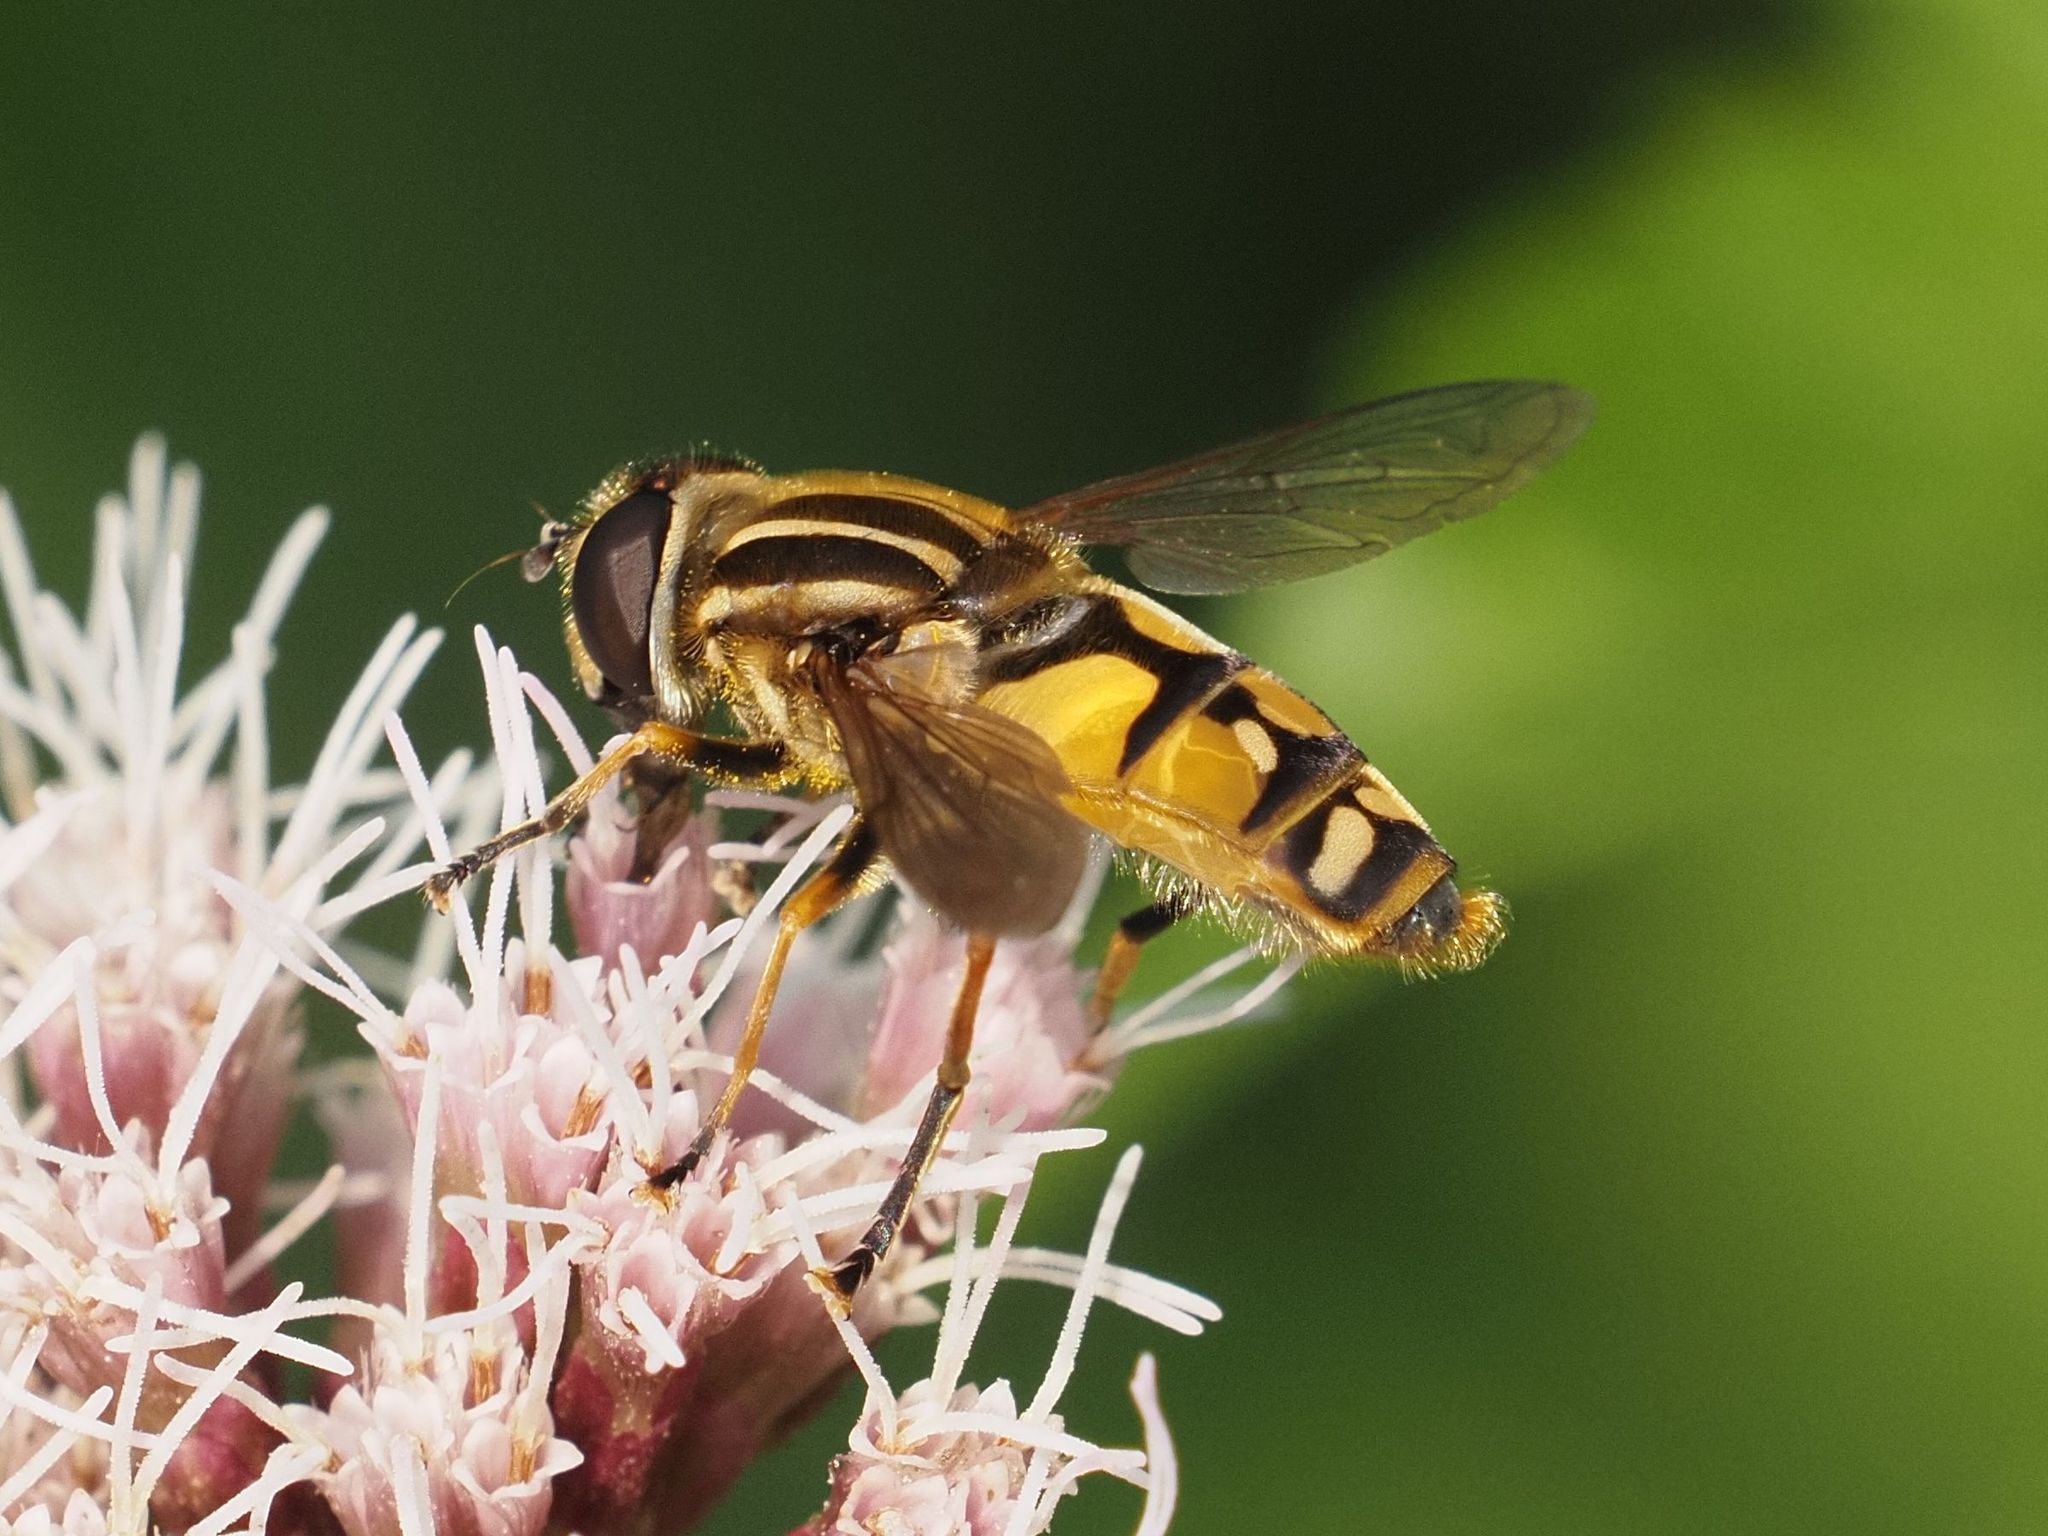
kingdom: Animalia
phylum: Arthropoda
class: Insecta
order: Diptera
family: Syrphidae
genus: Helophilus
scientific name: Helophilus pendulus
